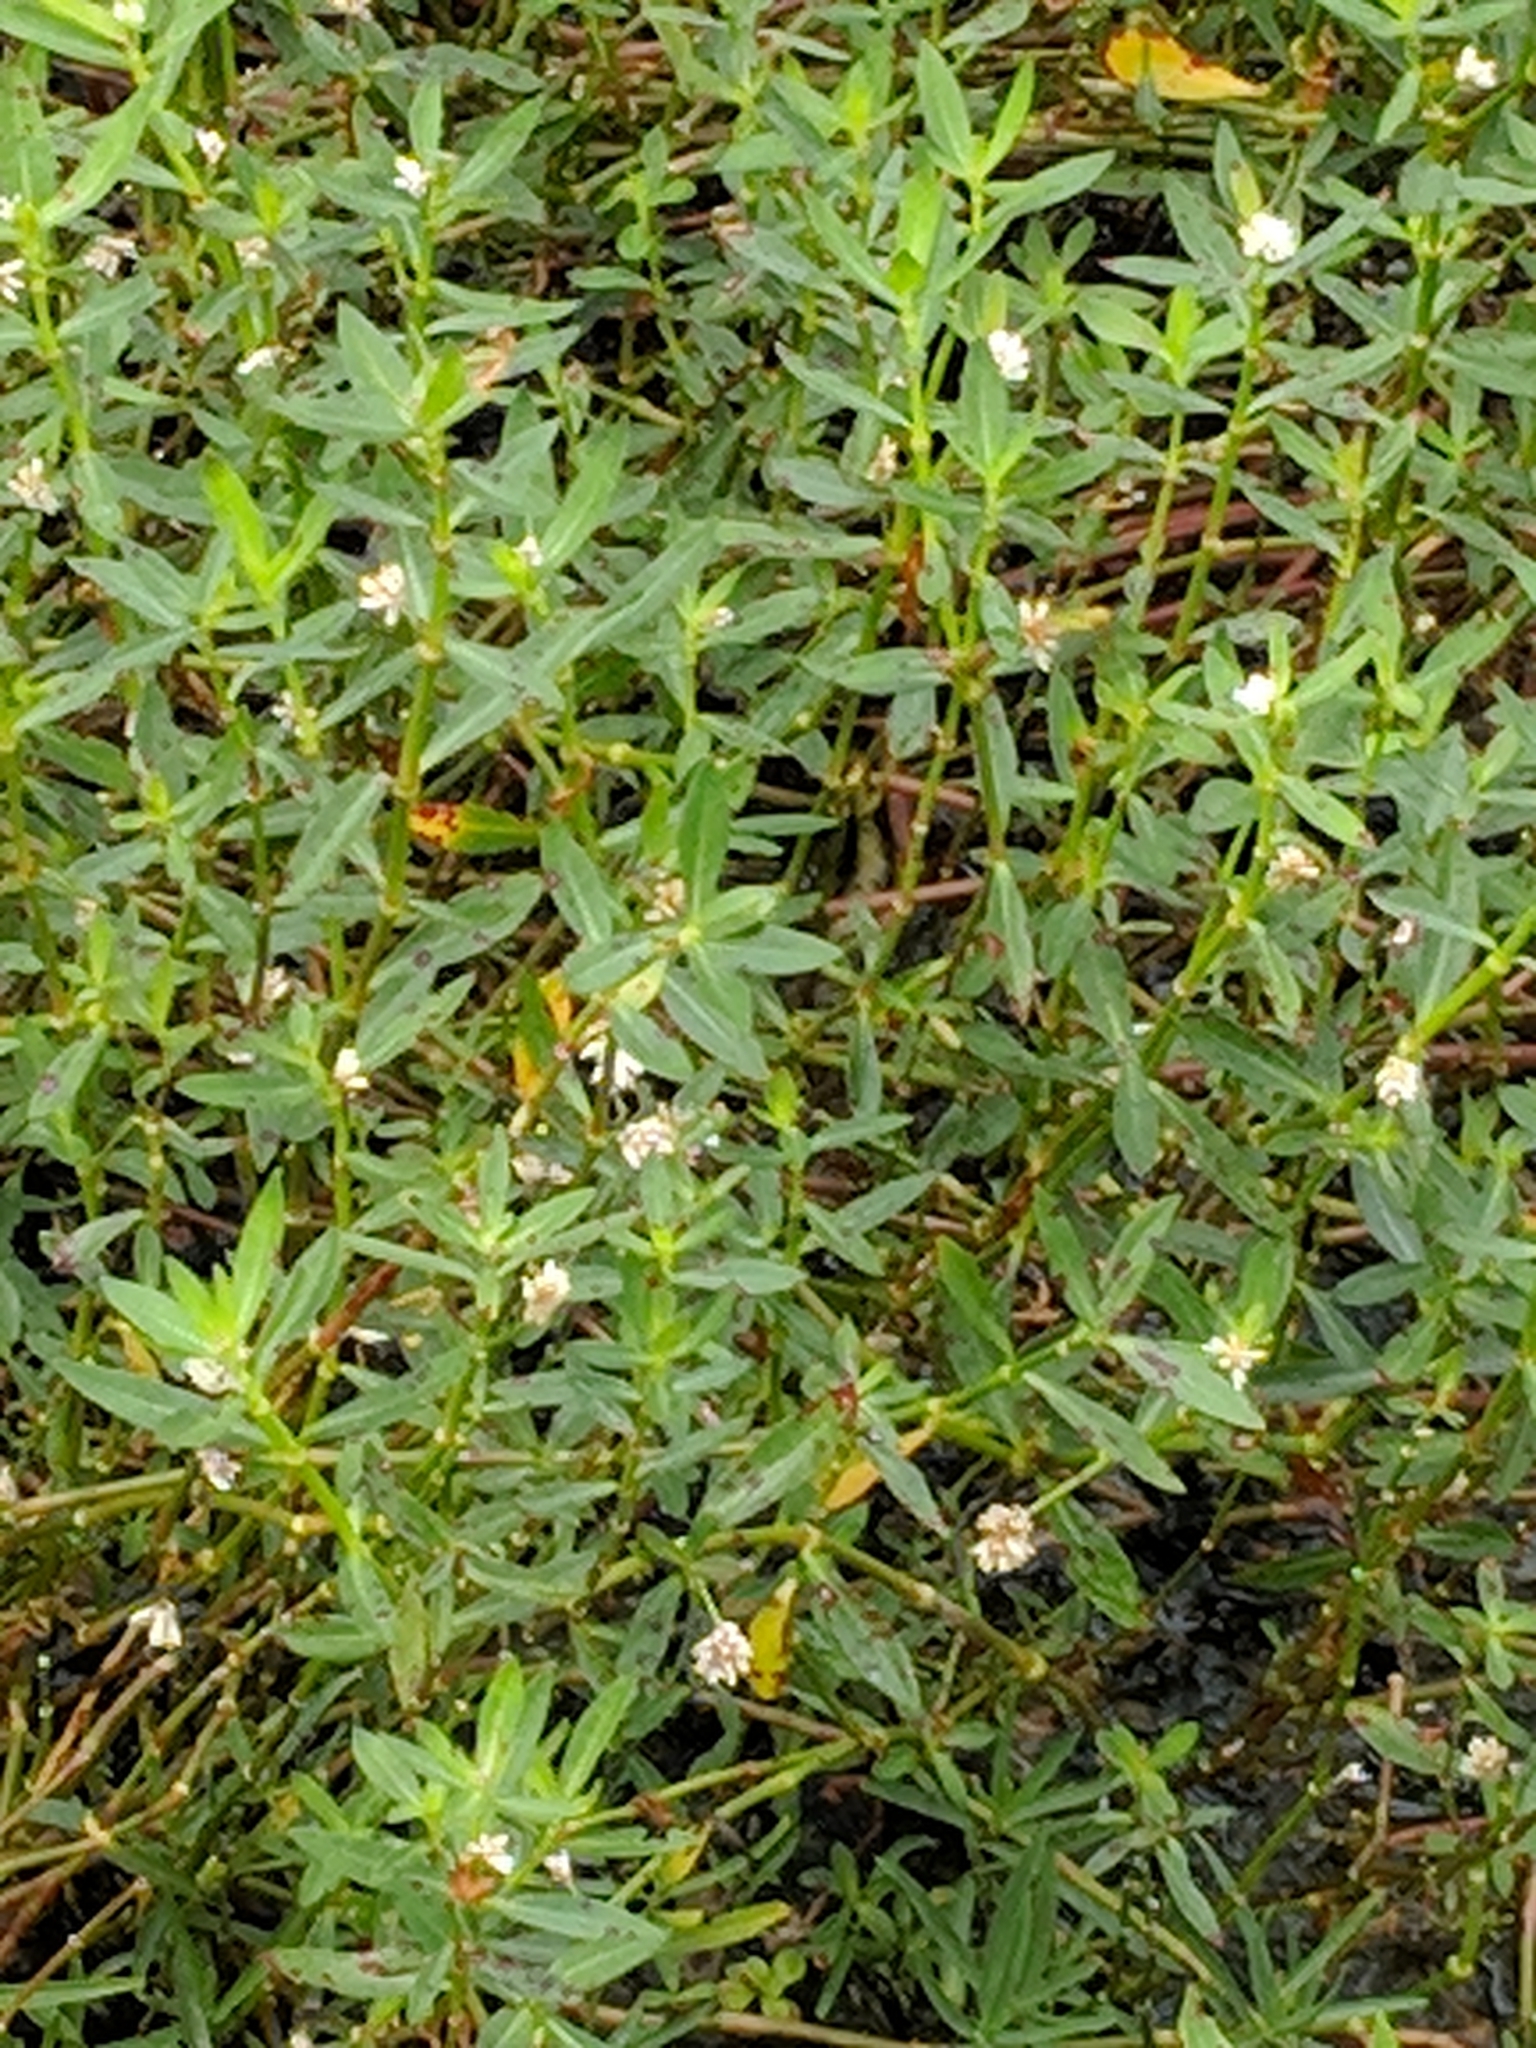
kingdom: Plantae
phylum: Tracheophyta
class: Magnoliopsida
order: Caryophyllales
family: Amaranthaceae
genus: Alternanthera
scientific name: Alternanthera philoxeroides
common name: Alligatorweed
